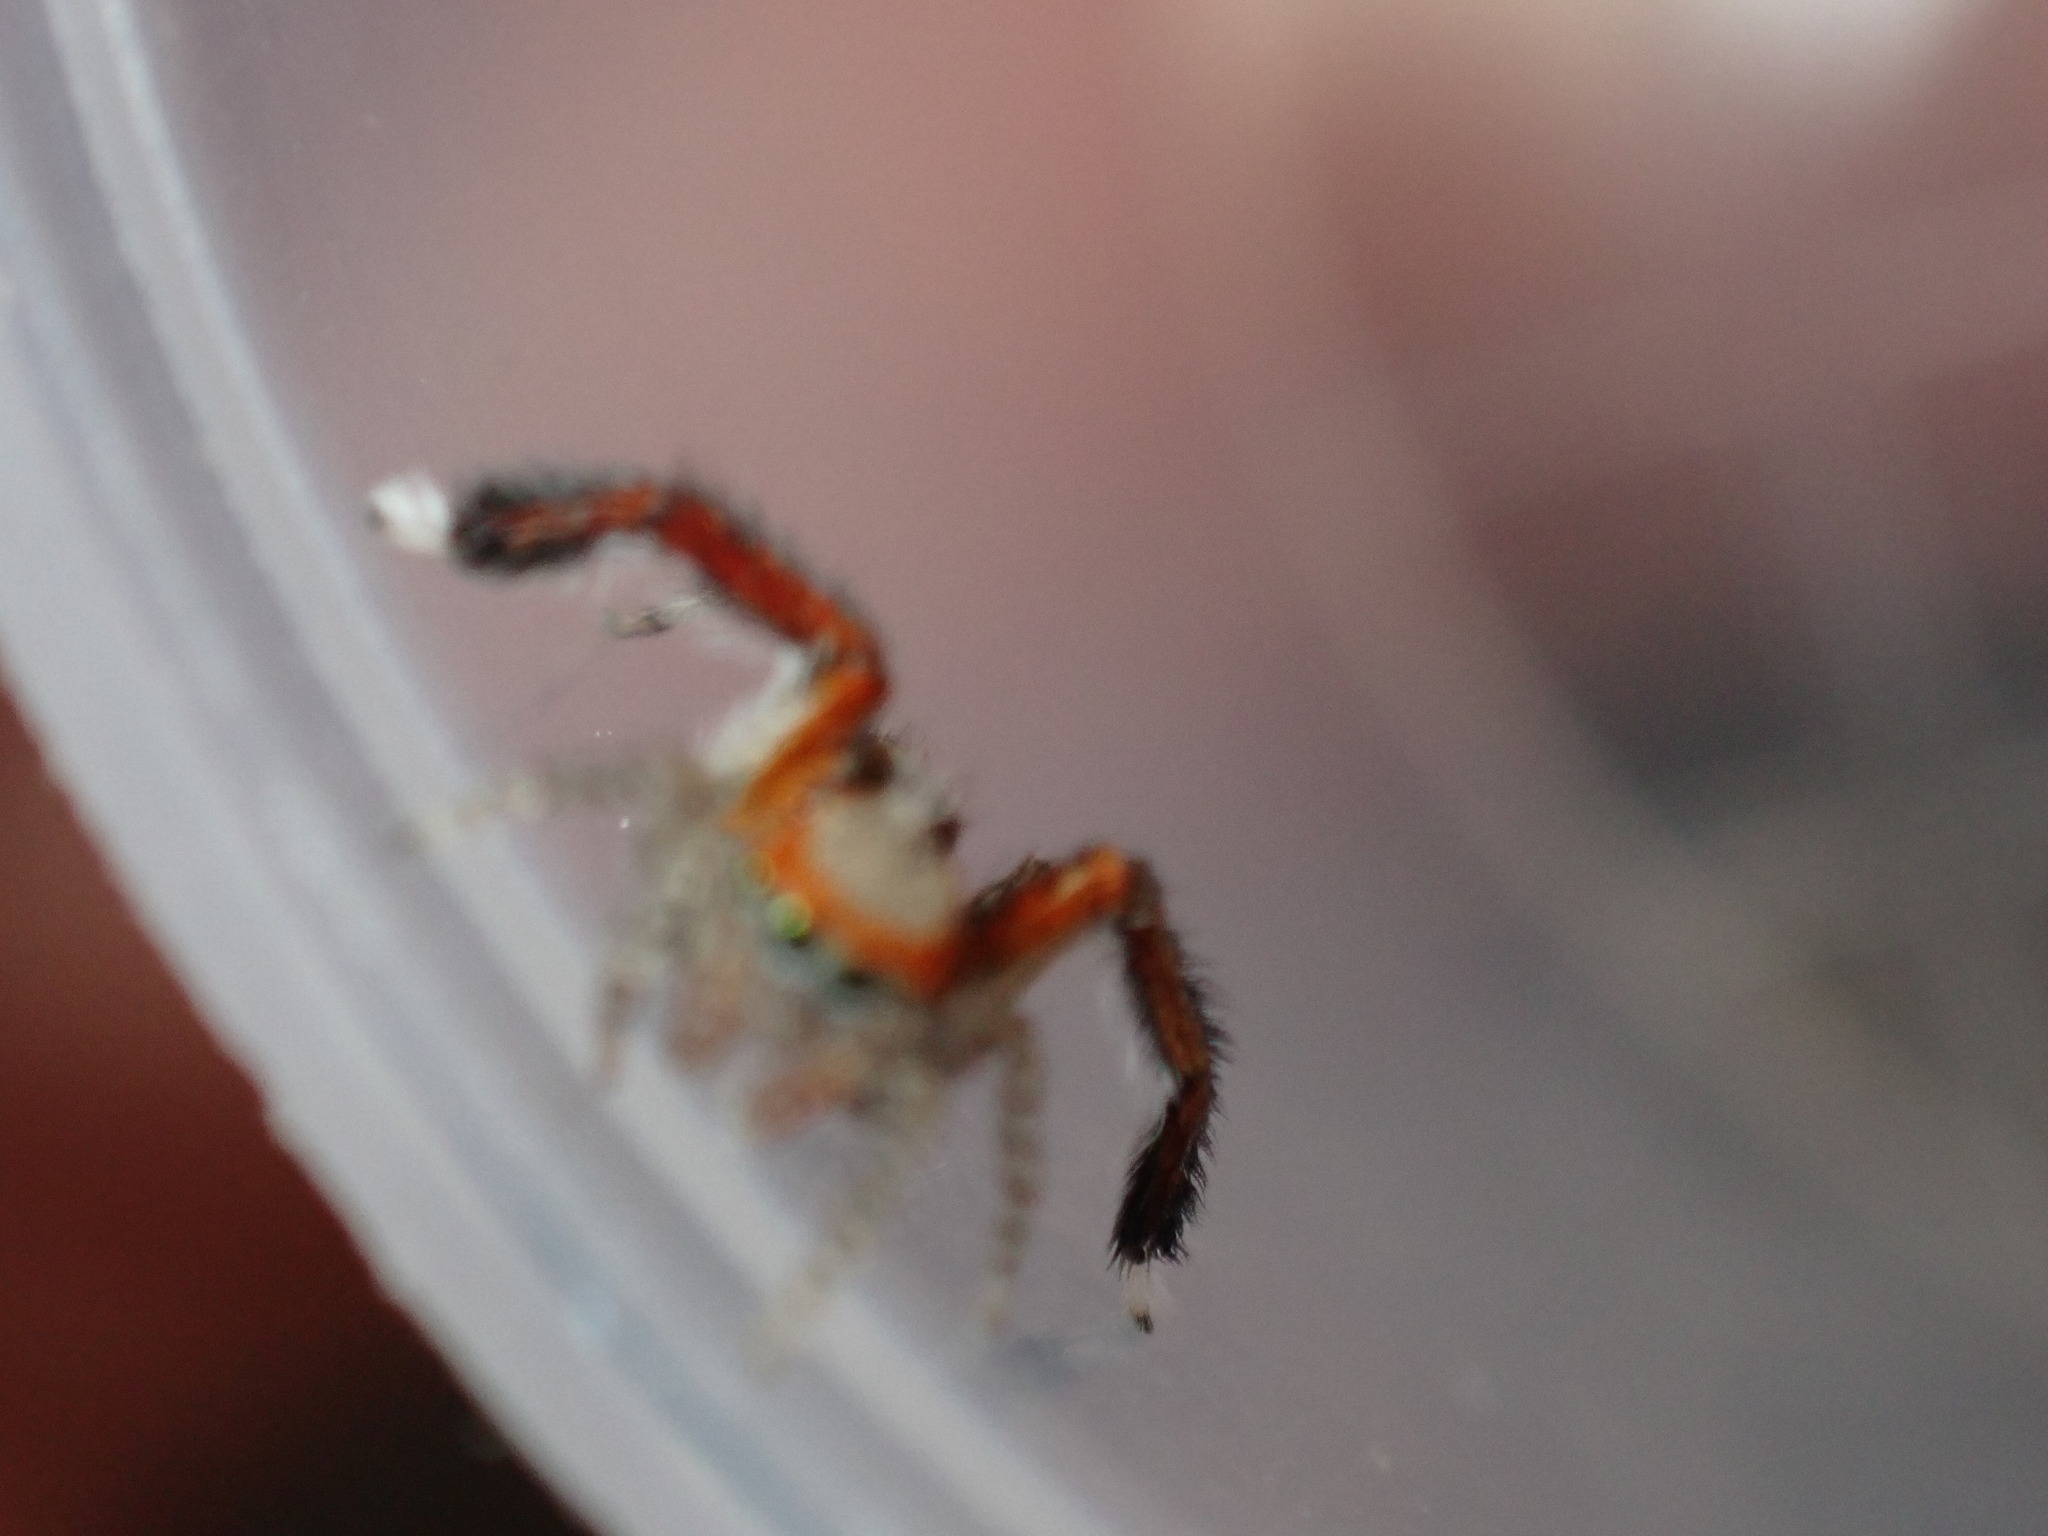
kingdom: Animalia
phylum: Arthropoda
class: Arachnida
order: Araneae
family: Salticidae
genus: Saitis
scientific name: Saitis barbipes
